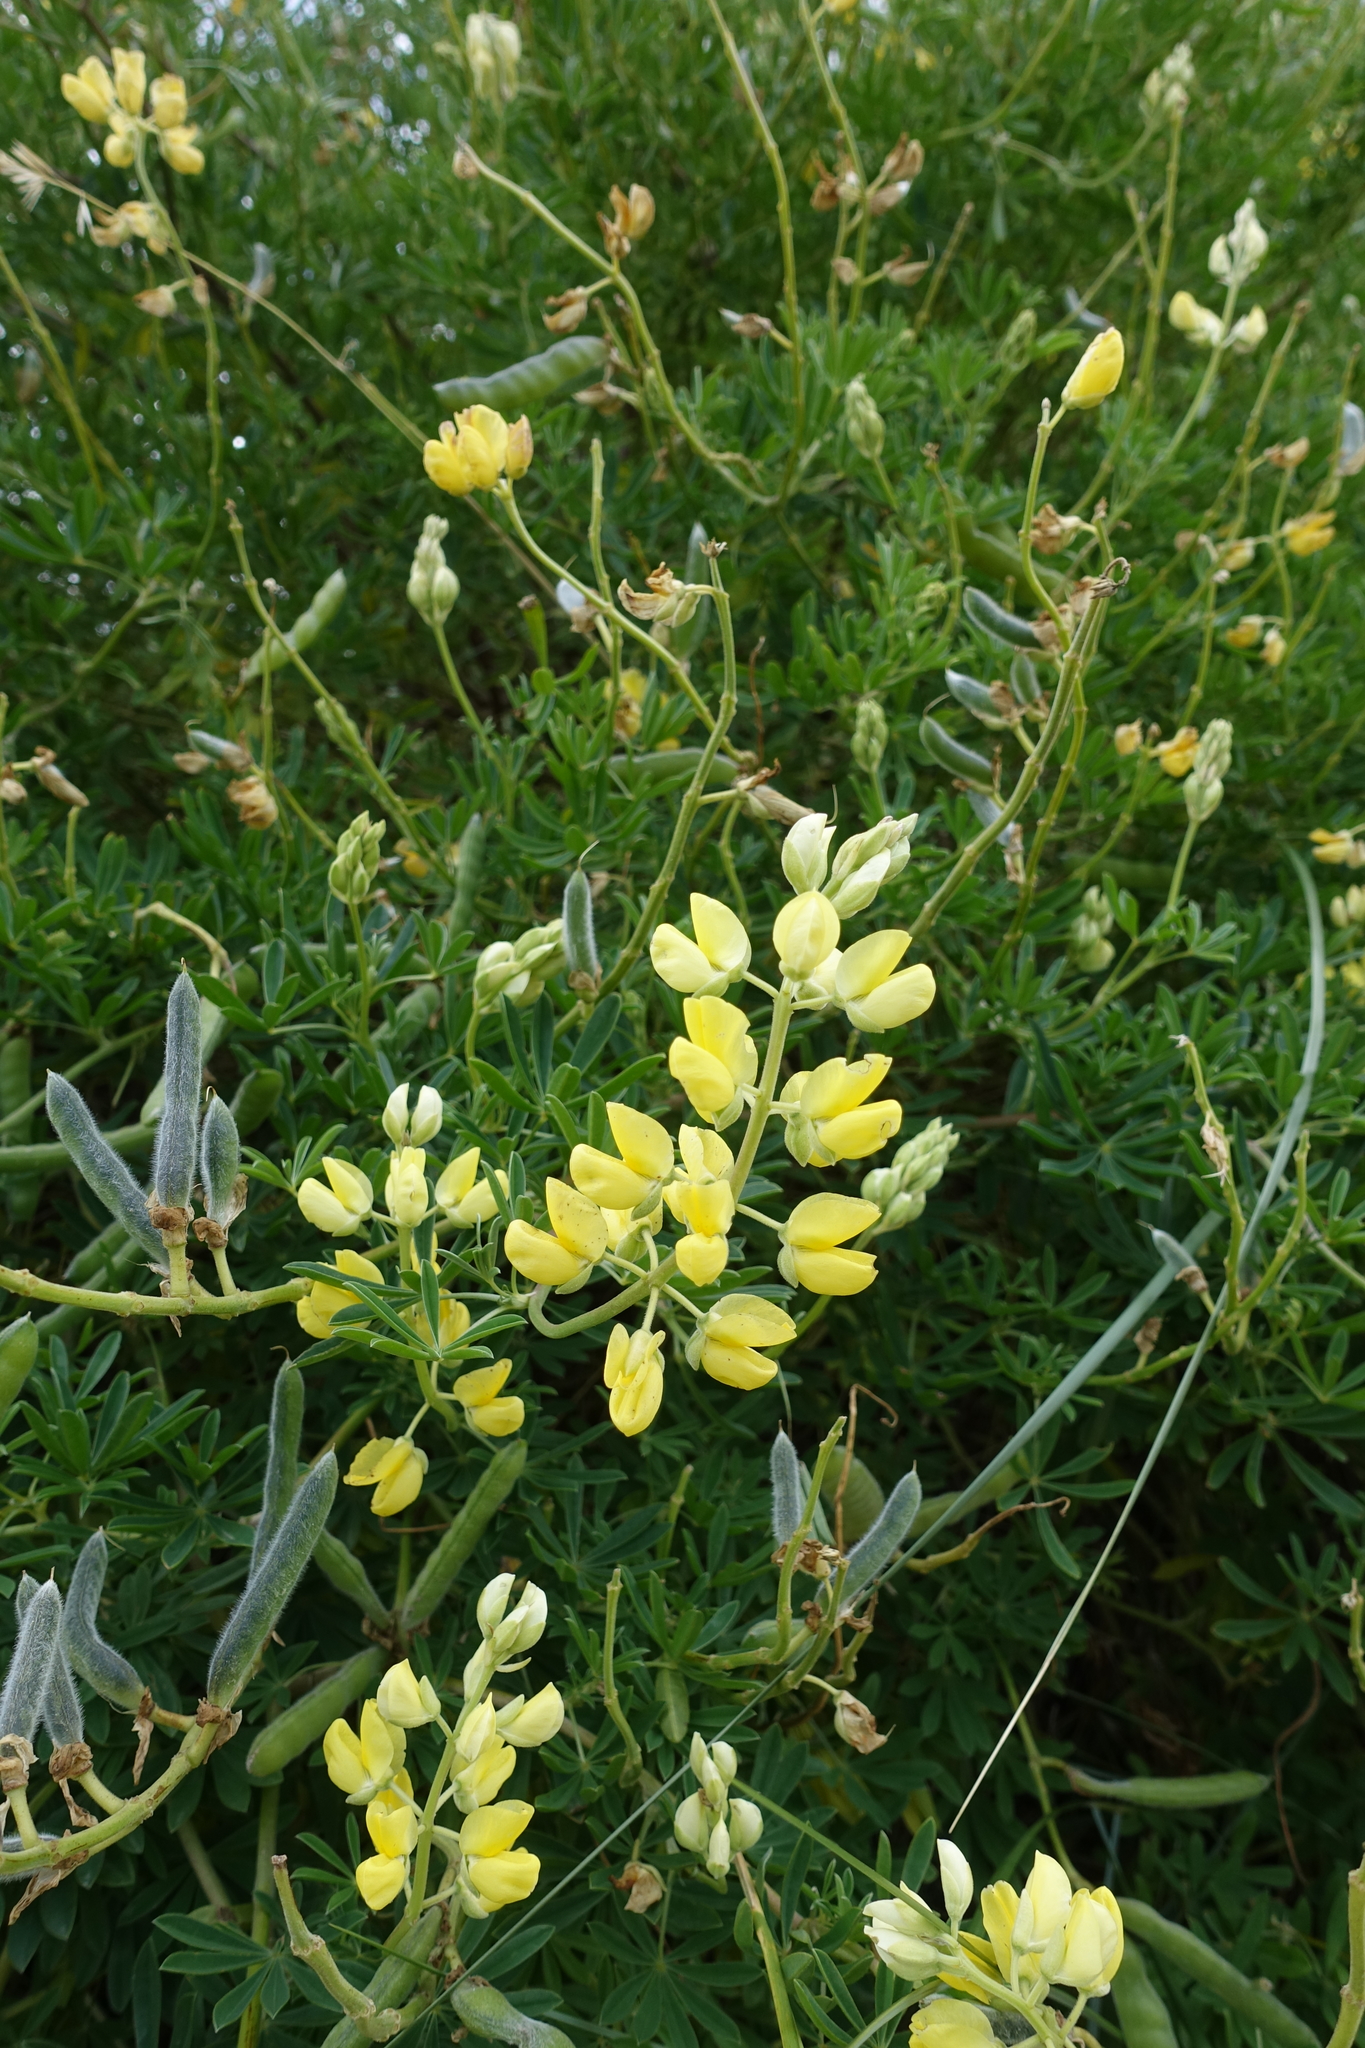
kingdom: Plantae
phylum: Tracheophyta
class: Magnoliopsida
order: Fabales
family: Fabaceae
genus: Lupinus
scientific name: Lupinus arboreus
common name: Yellow bush lupine
